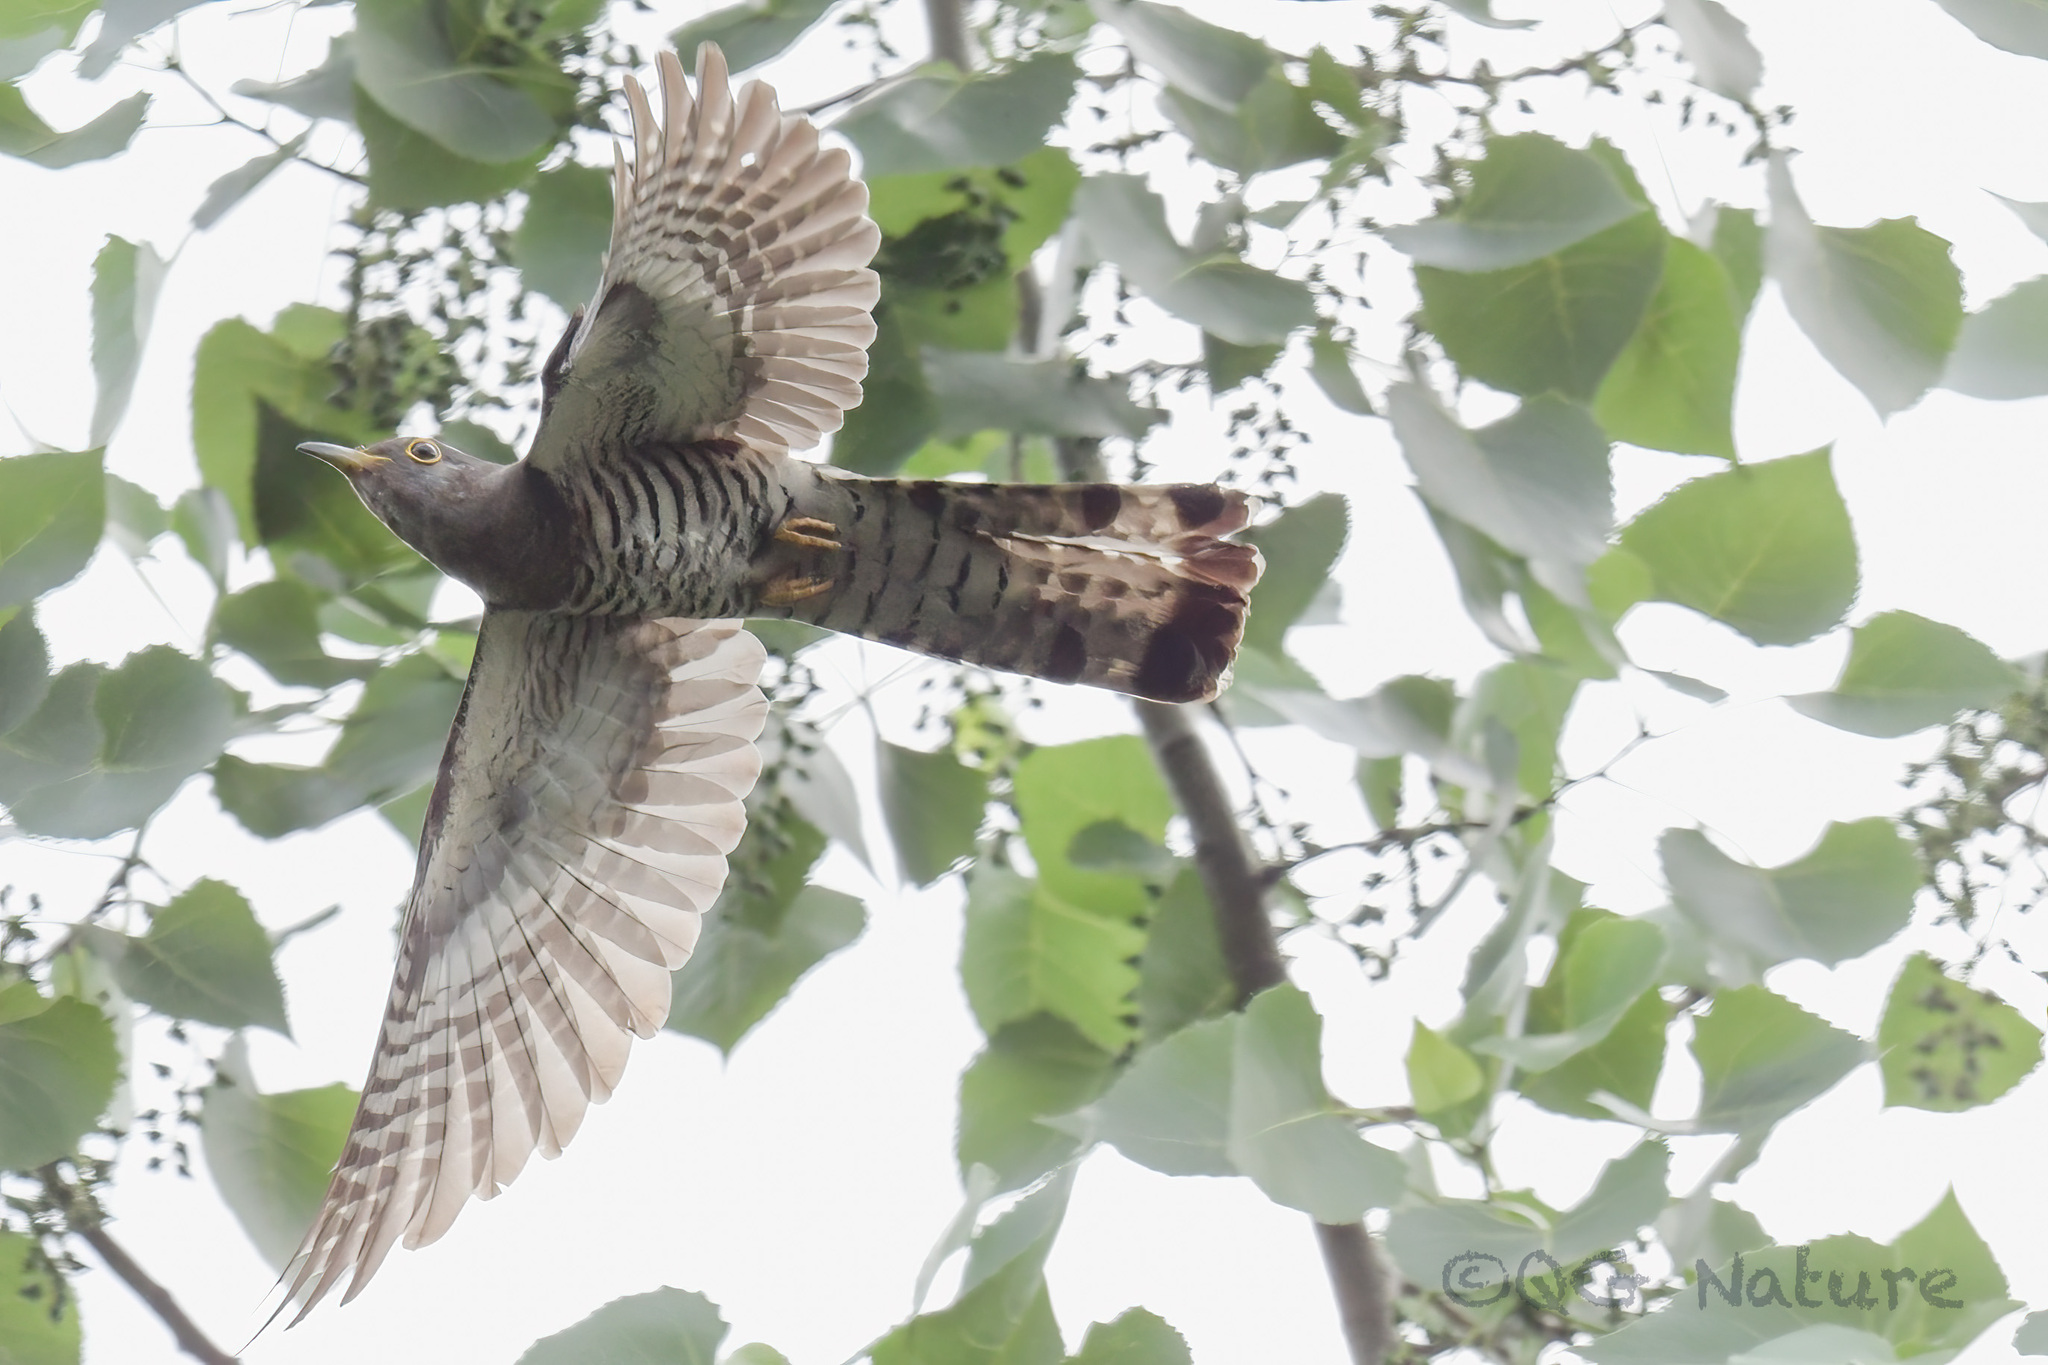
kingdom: Animalia
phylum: Chordata
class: Aves
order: Cuculiformes
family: Cuculidae
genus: Cuculus
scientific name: Cuculus micropterus
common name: Indian cuckoo
